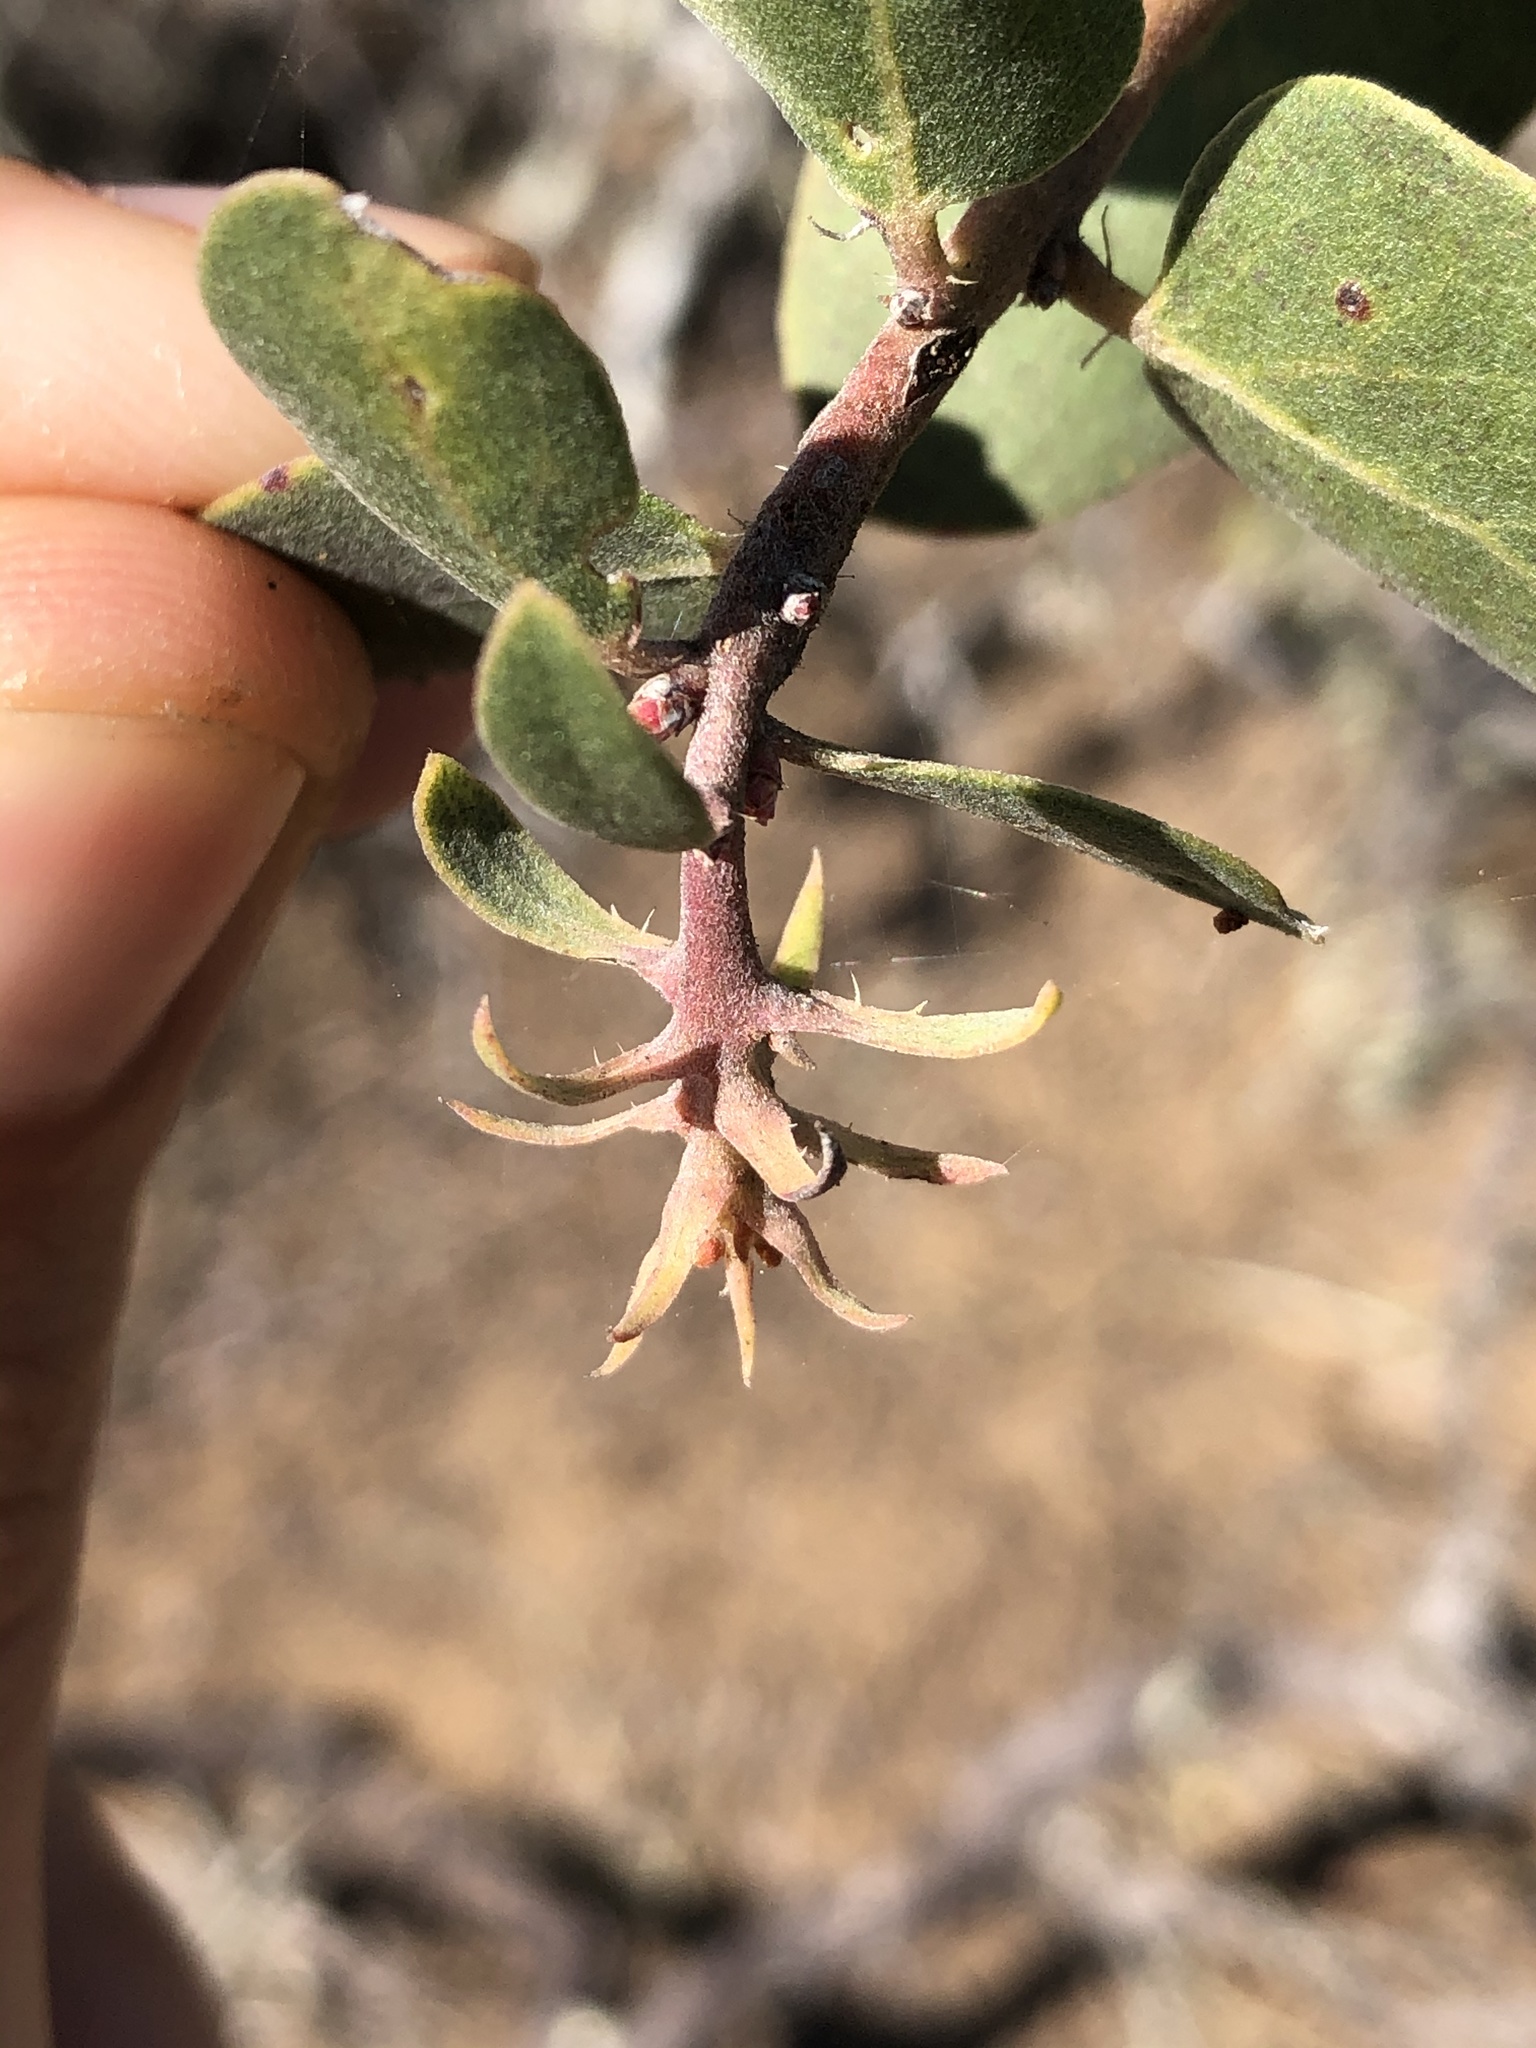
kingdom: Plantae
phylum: Tracheophyta
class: Magnoliopsida
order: Ericales
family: Ericaceae
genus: Arctostaphylos
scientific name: Arctostaphylos morroensis
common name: Morro manzanita
